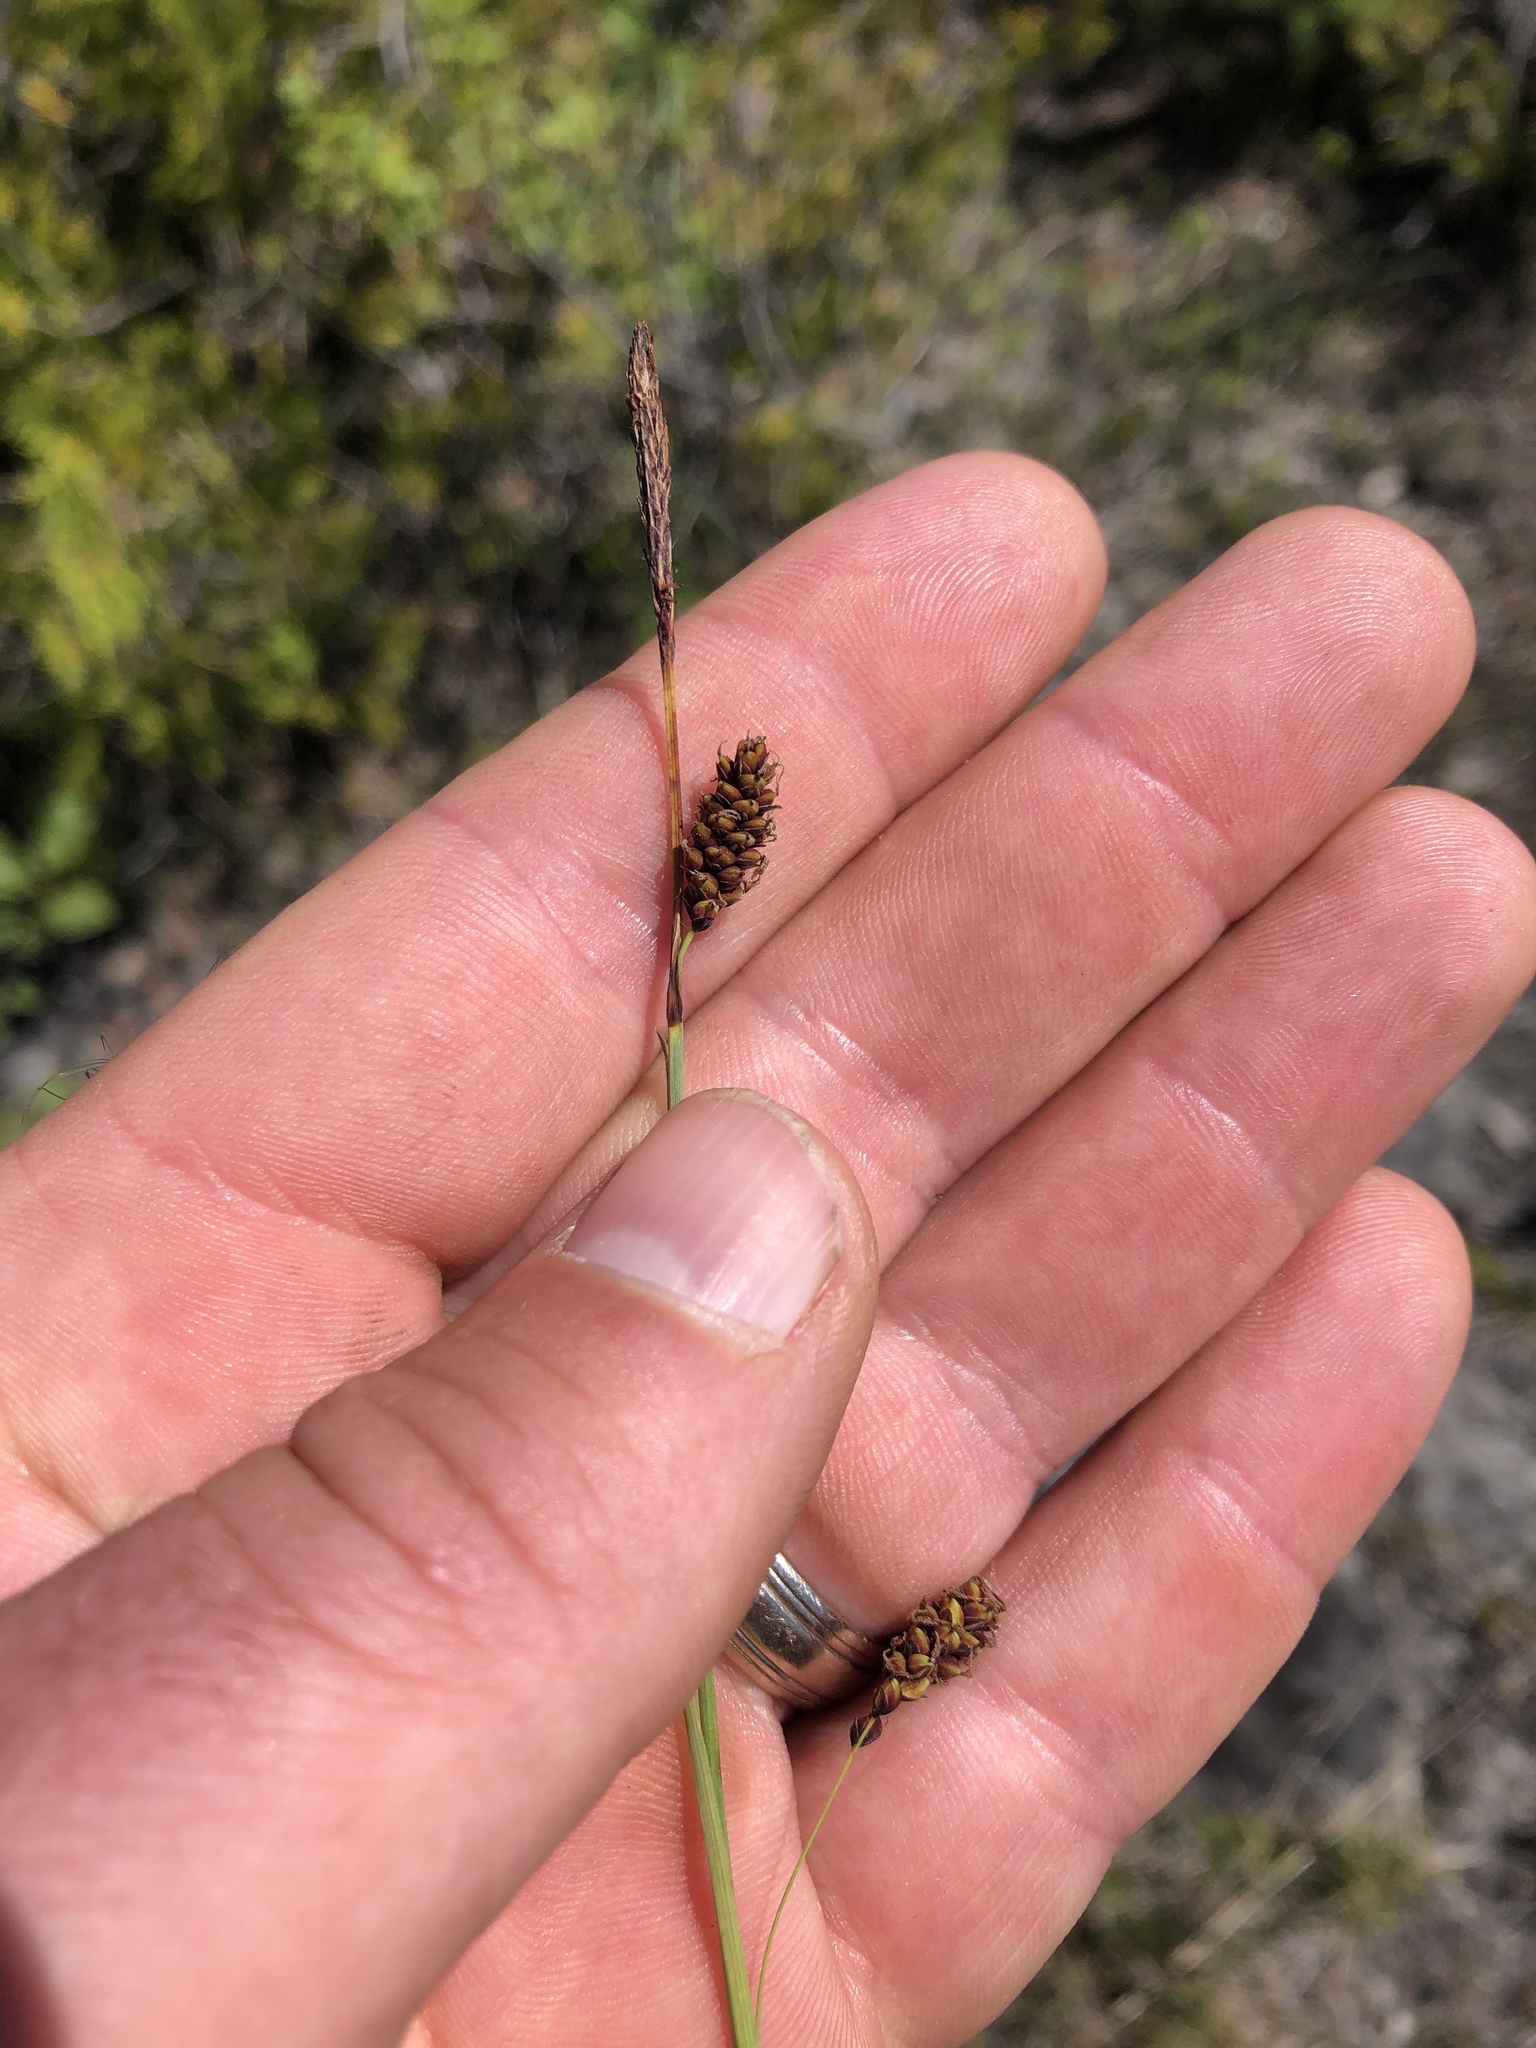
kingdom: Plantae
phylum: Tracheophyta
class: Liliopsida
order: Poales
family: Cyperaceae
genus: Carex
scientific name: Carex flacca
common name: Glaucous sedge
